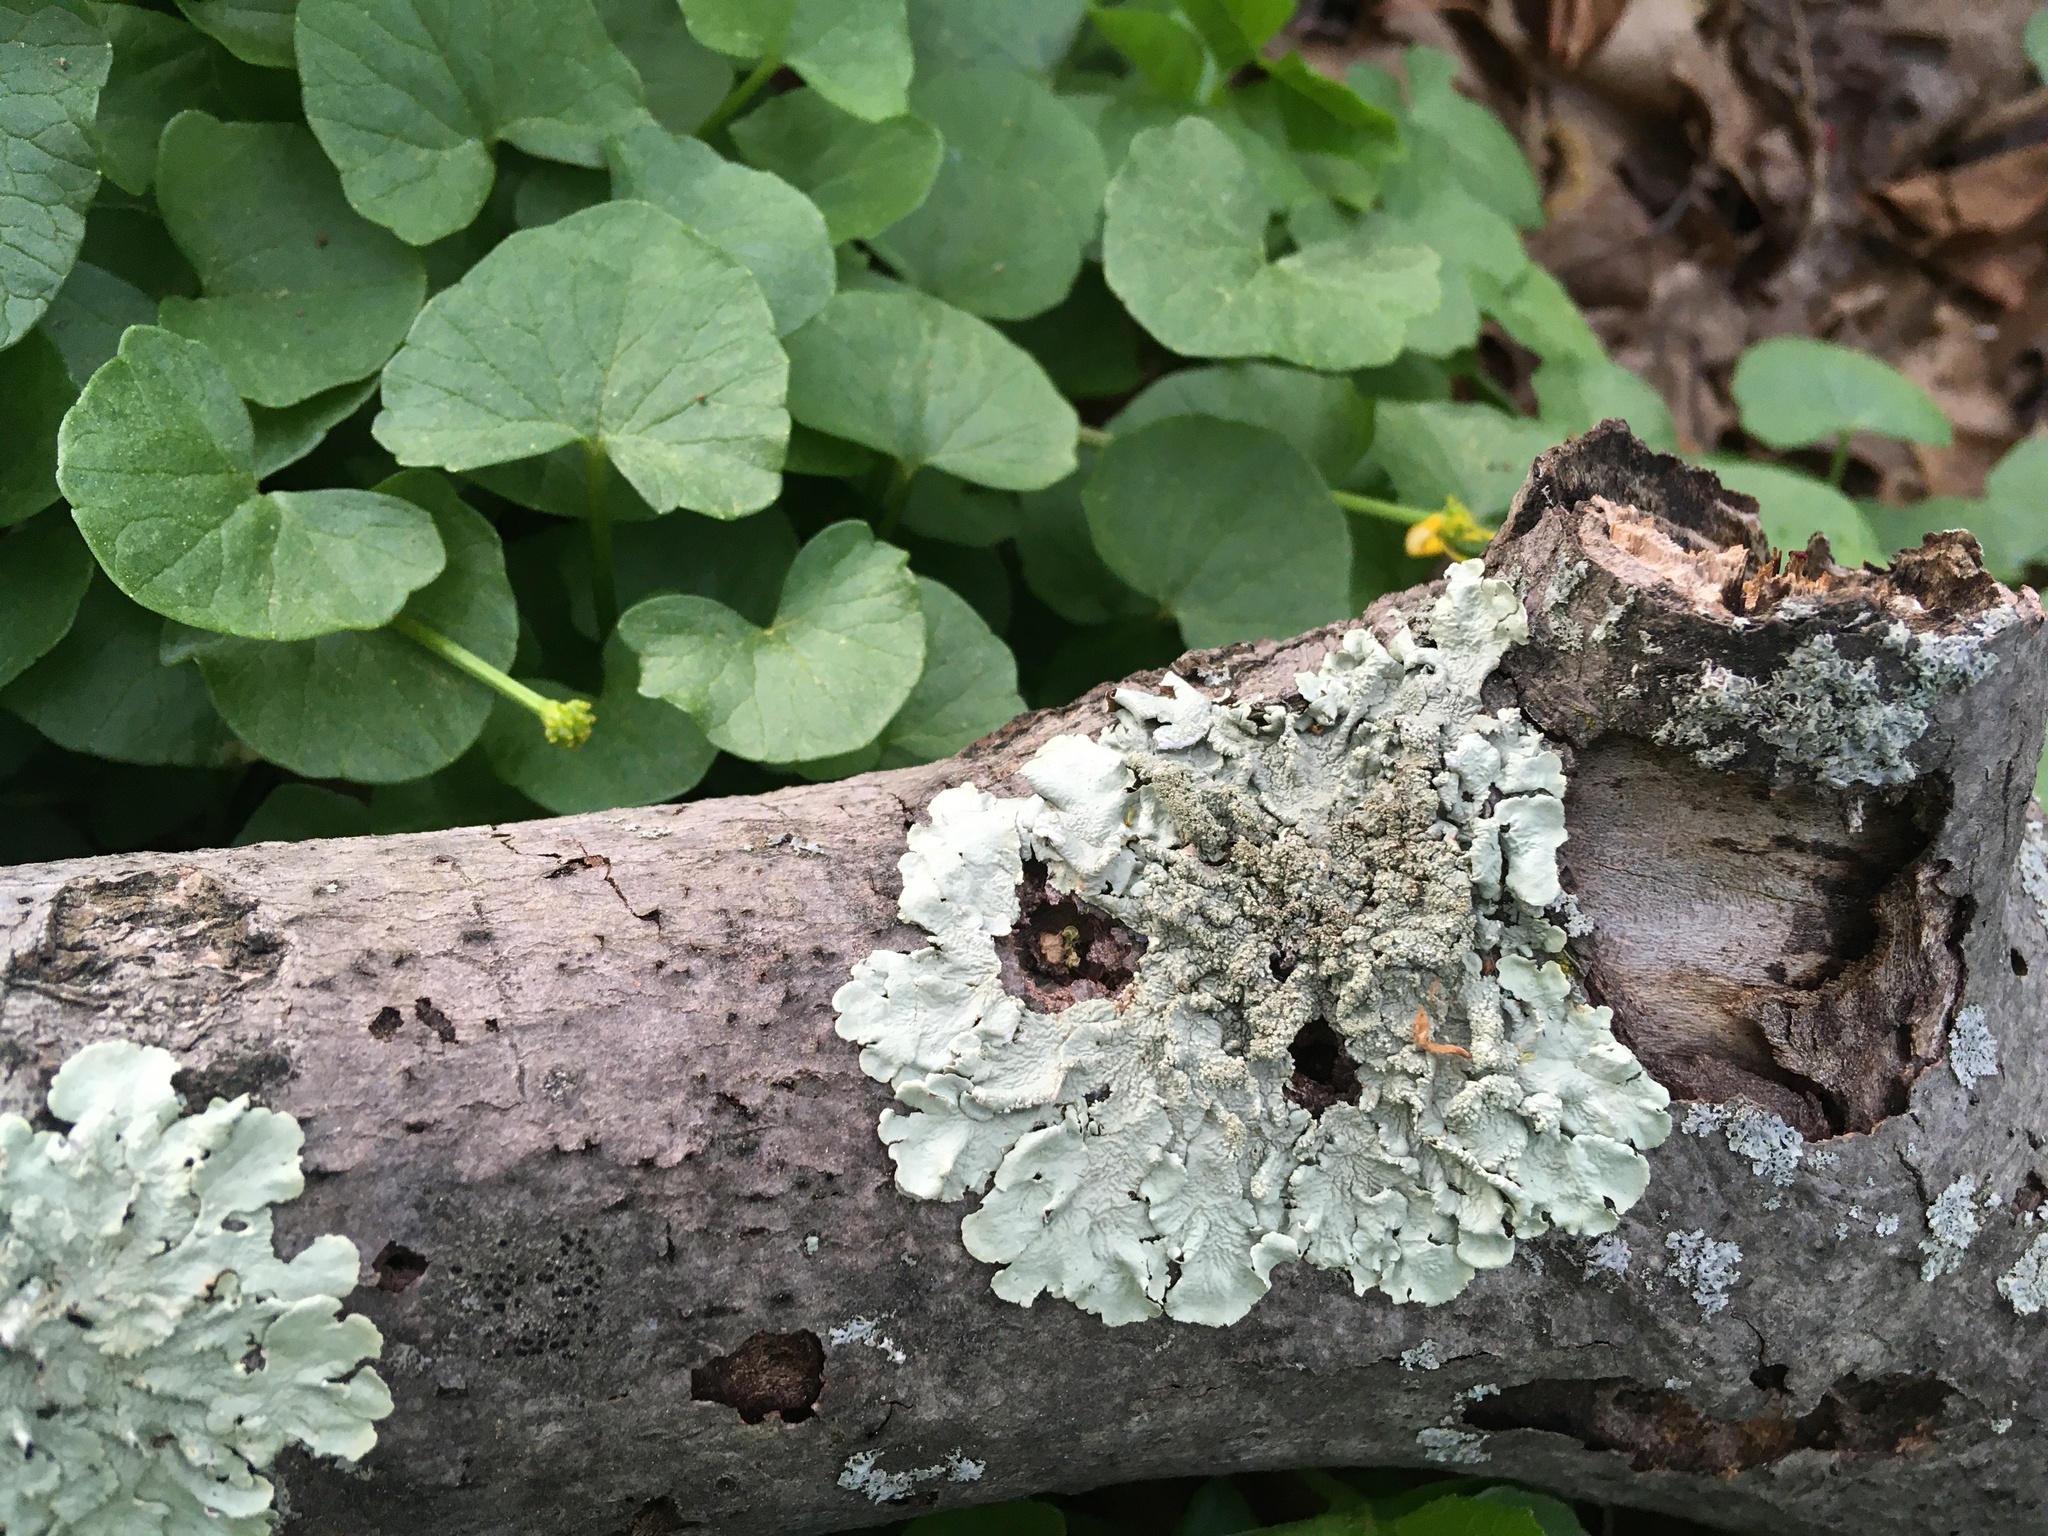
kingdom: Fungi
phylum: Ascomycota
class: Lecanoromycetes
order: Lecanorales
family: Parmeliaceae
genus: Flavoparmelia
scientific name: Flavoparmelia caperata
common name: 40-mile per hour lichen
